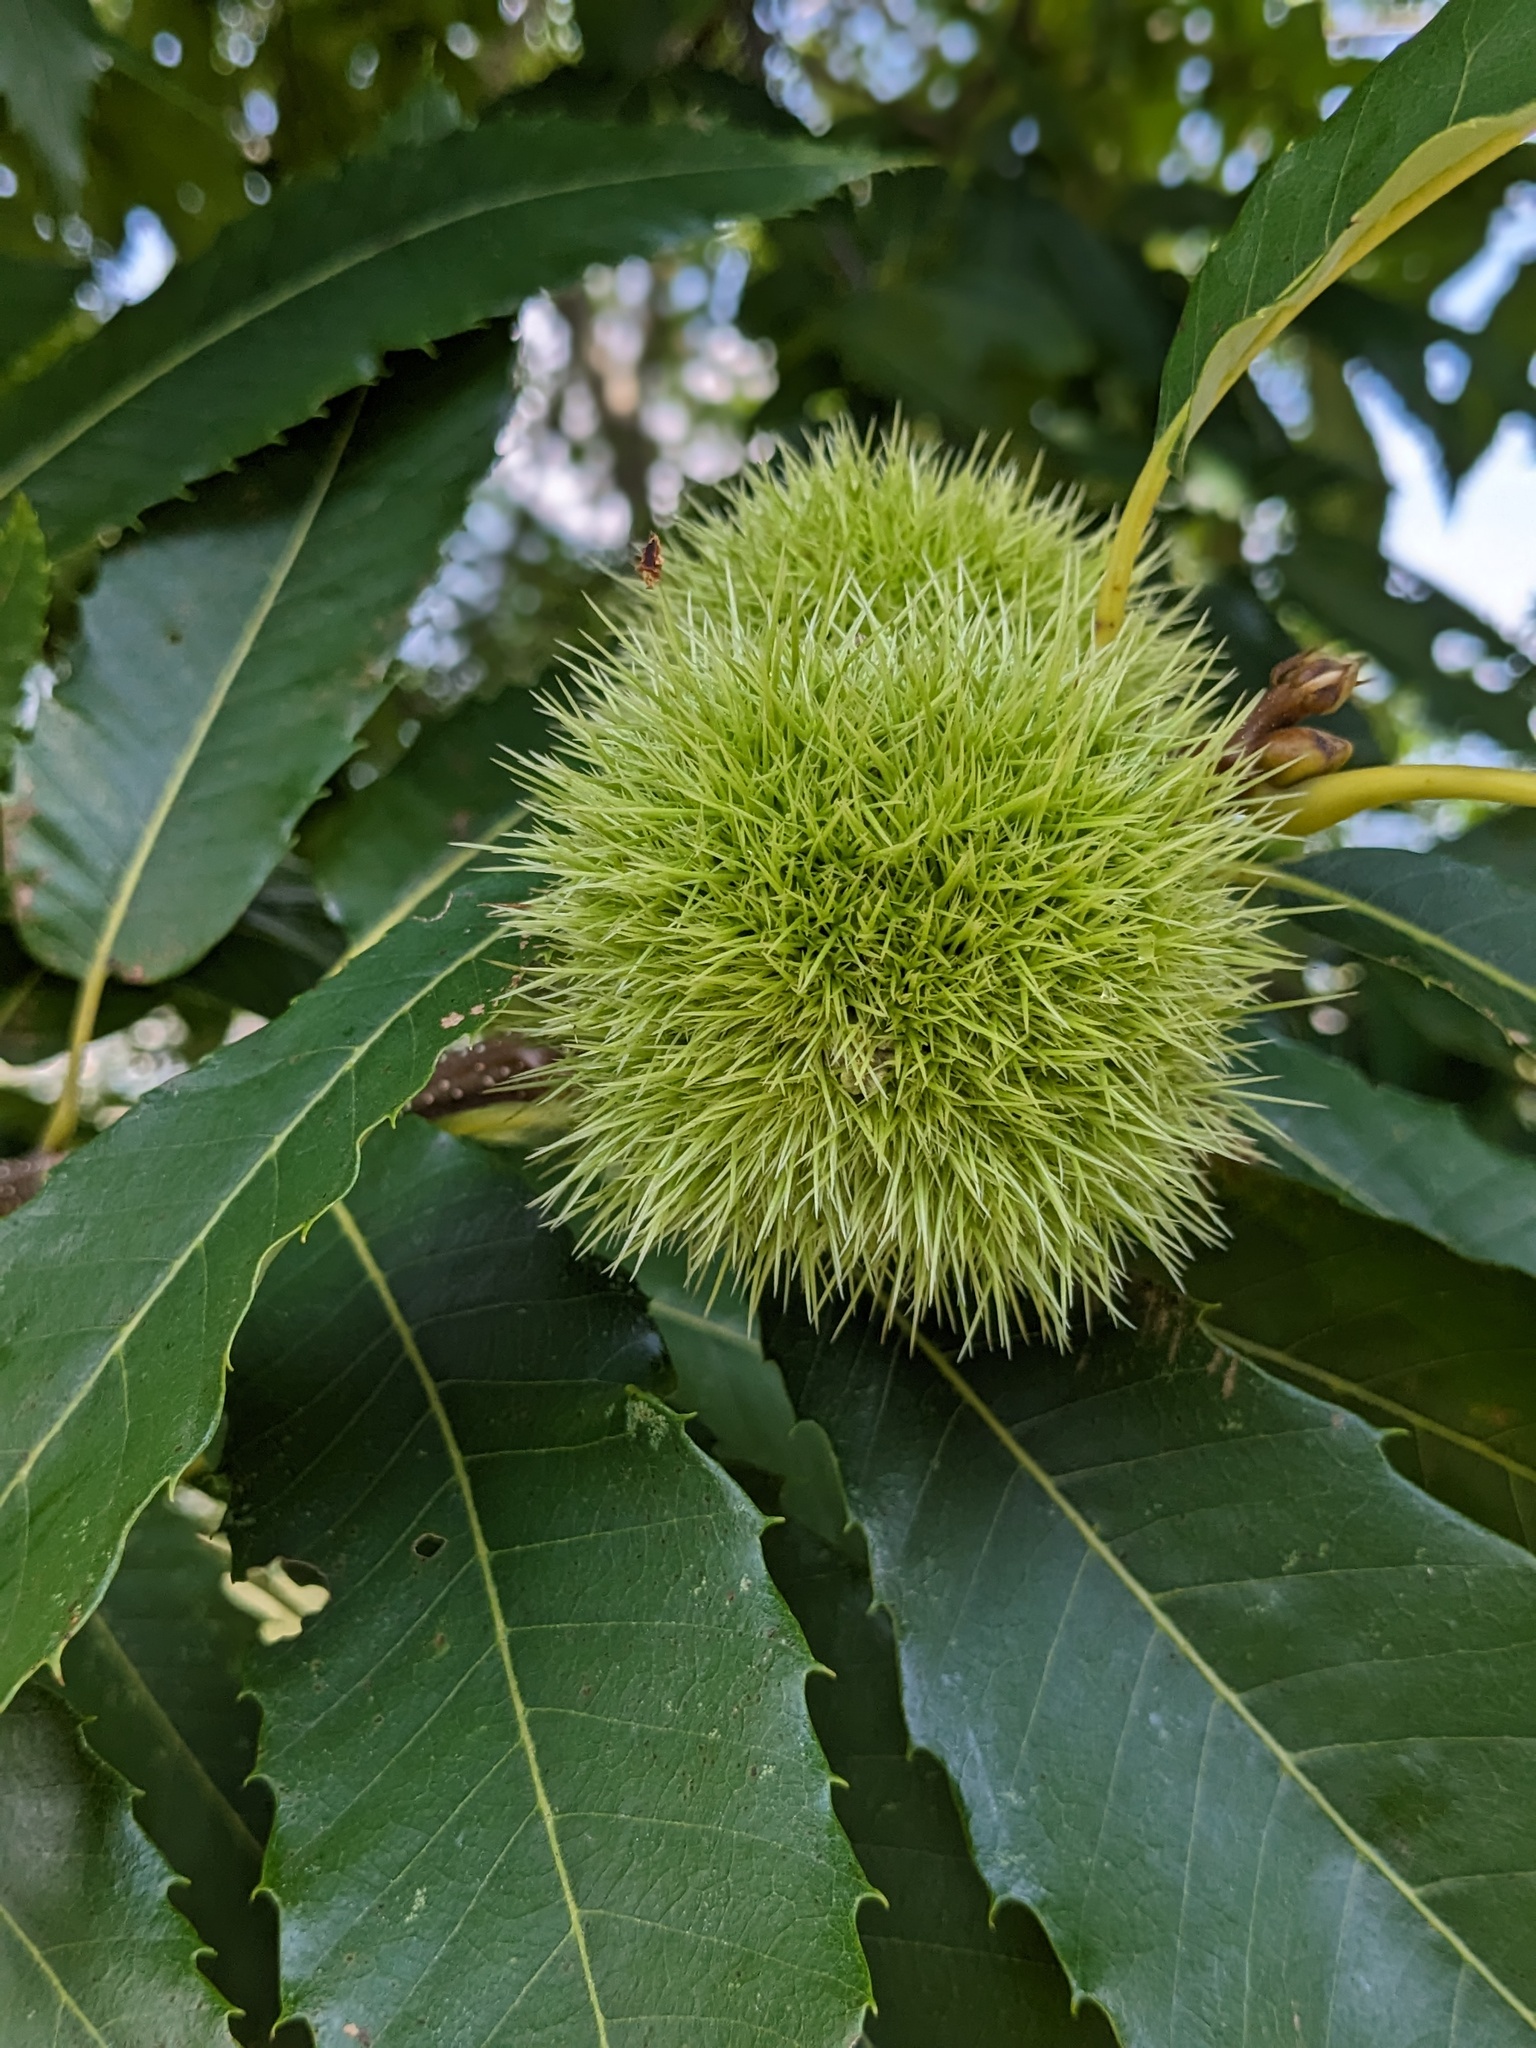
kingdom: Plantae
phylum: Tracheophyta
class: Magnoliopsida
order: Fagales
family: Fagaceae
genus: Castanea
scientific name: Castanea sativa
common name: Sweet chestnut
